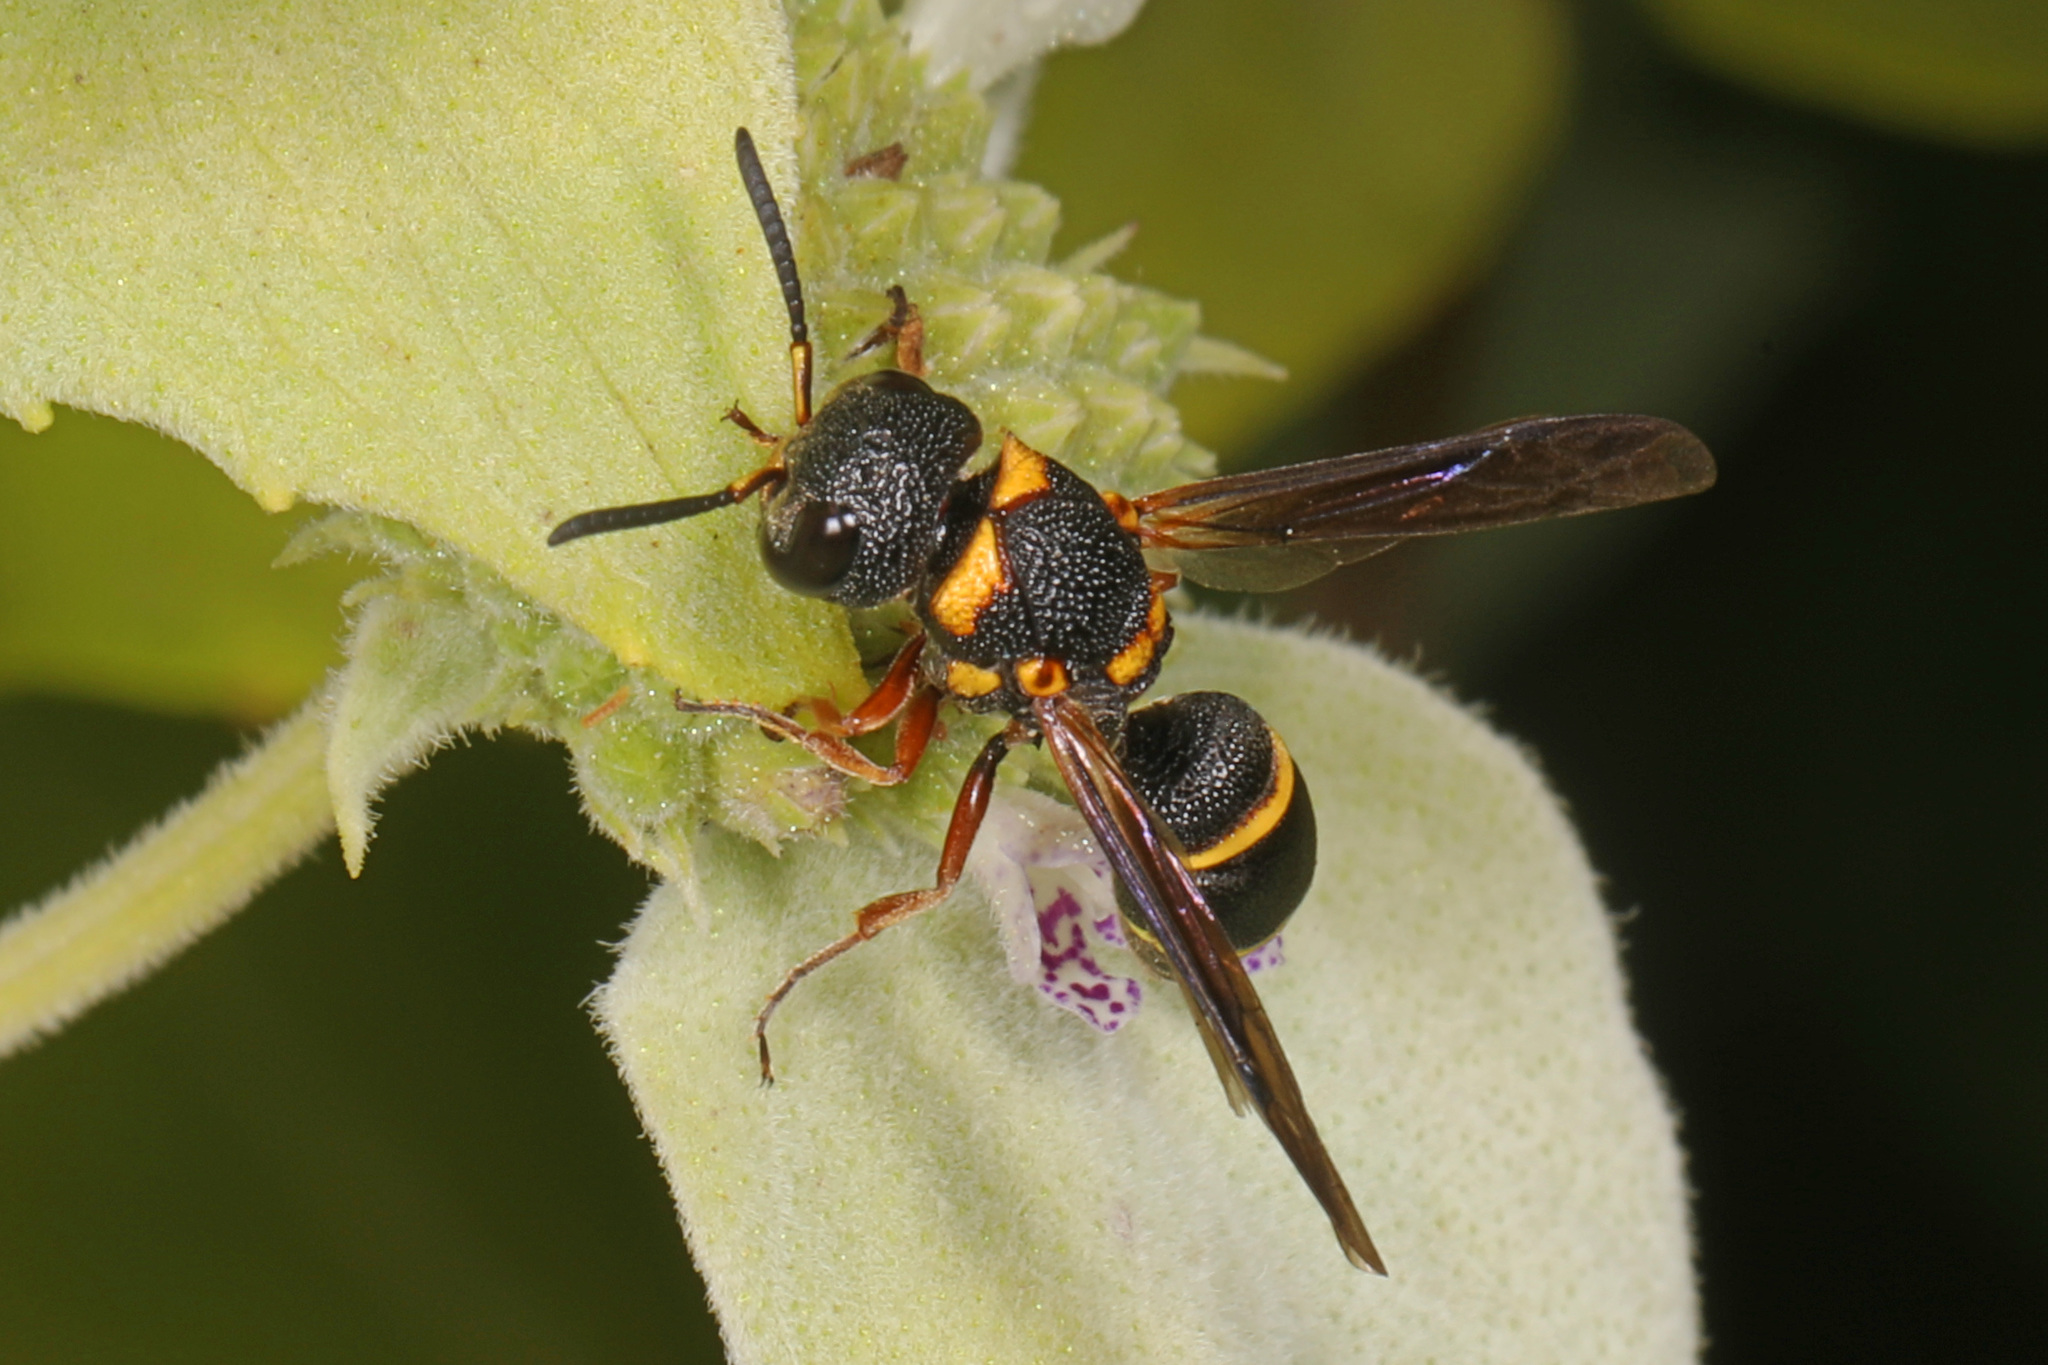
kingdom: Animalia
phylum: Arthropoda
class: Insecta
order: Hymenoptera
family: Eumenidae
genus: Cyrtolabulus
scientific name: Cyrtolabulus mutinensis
